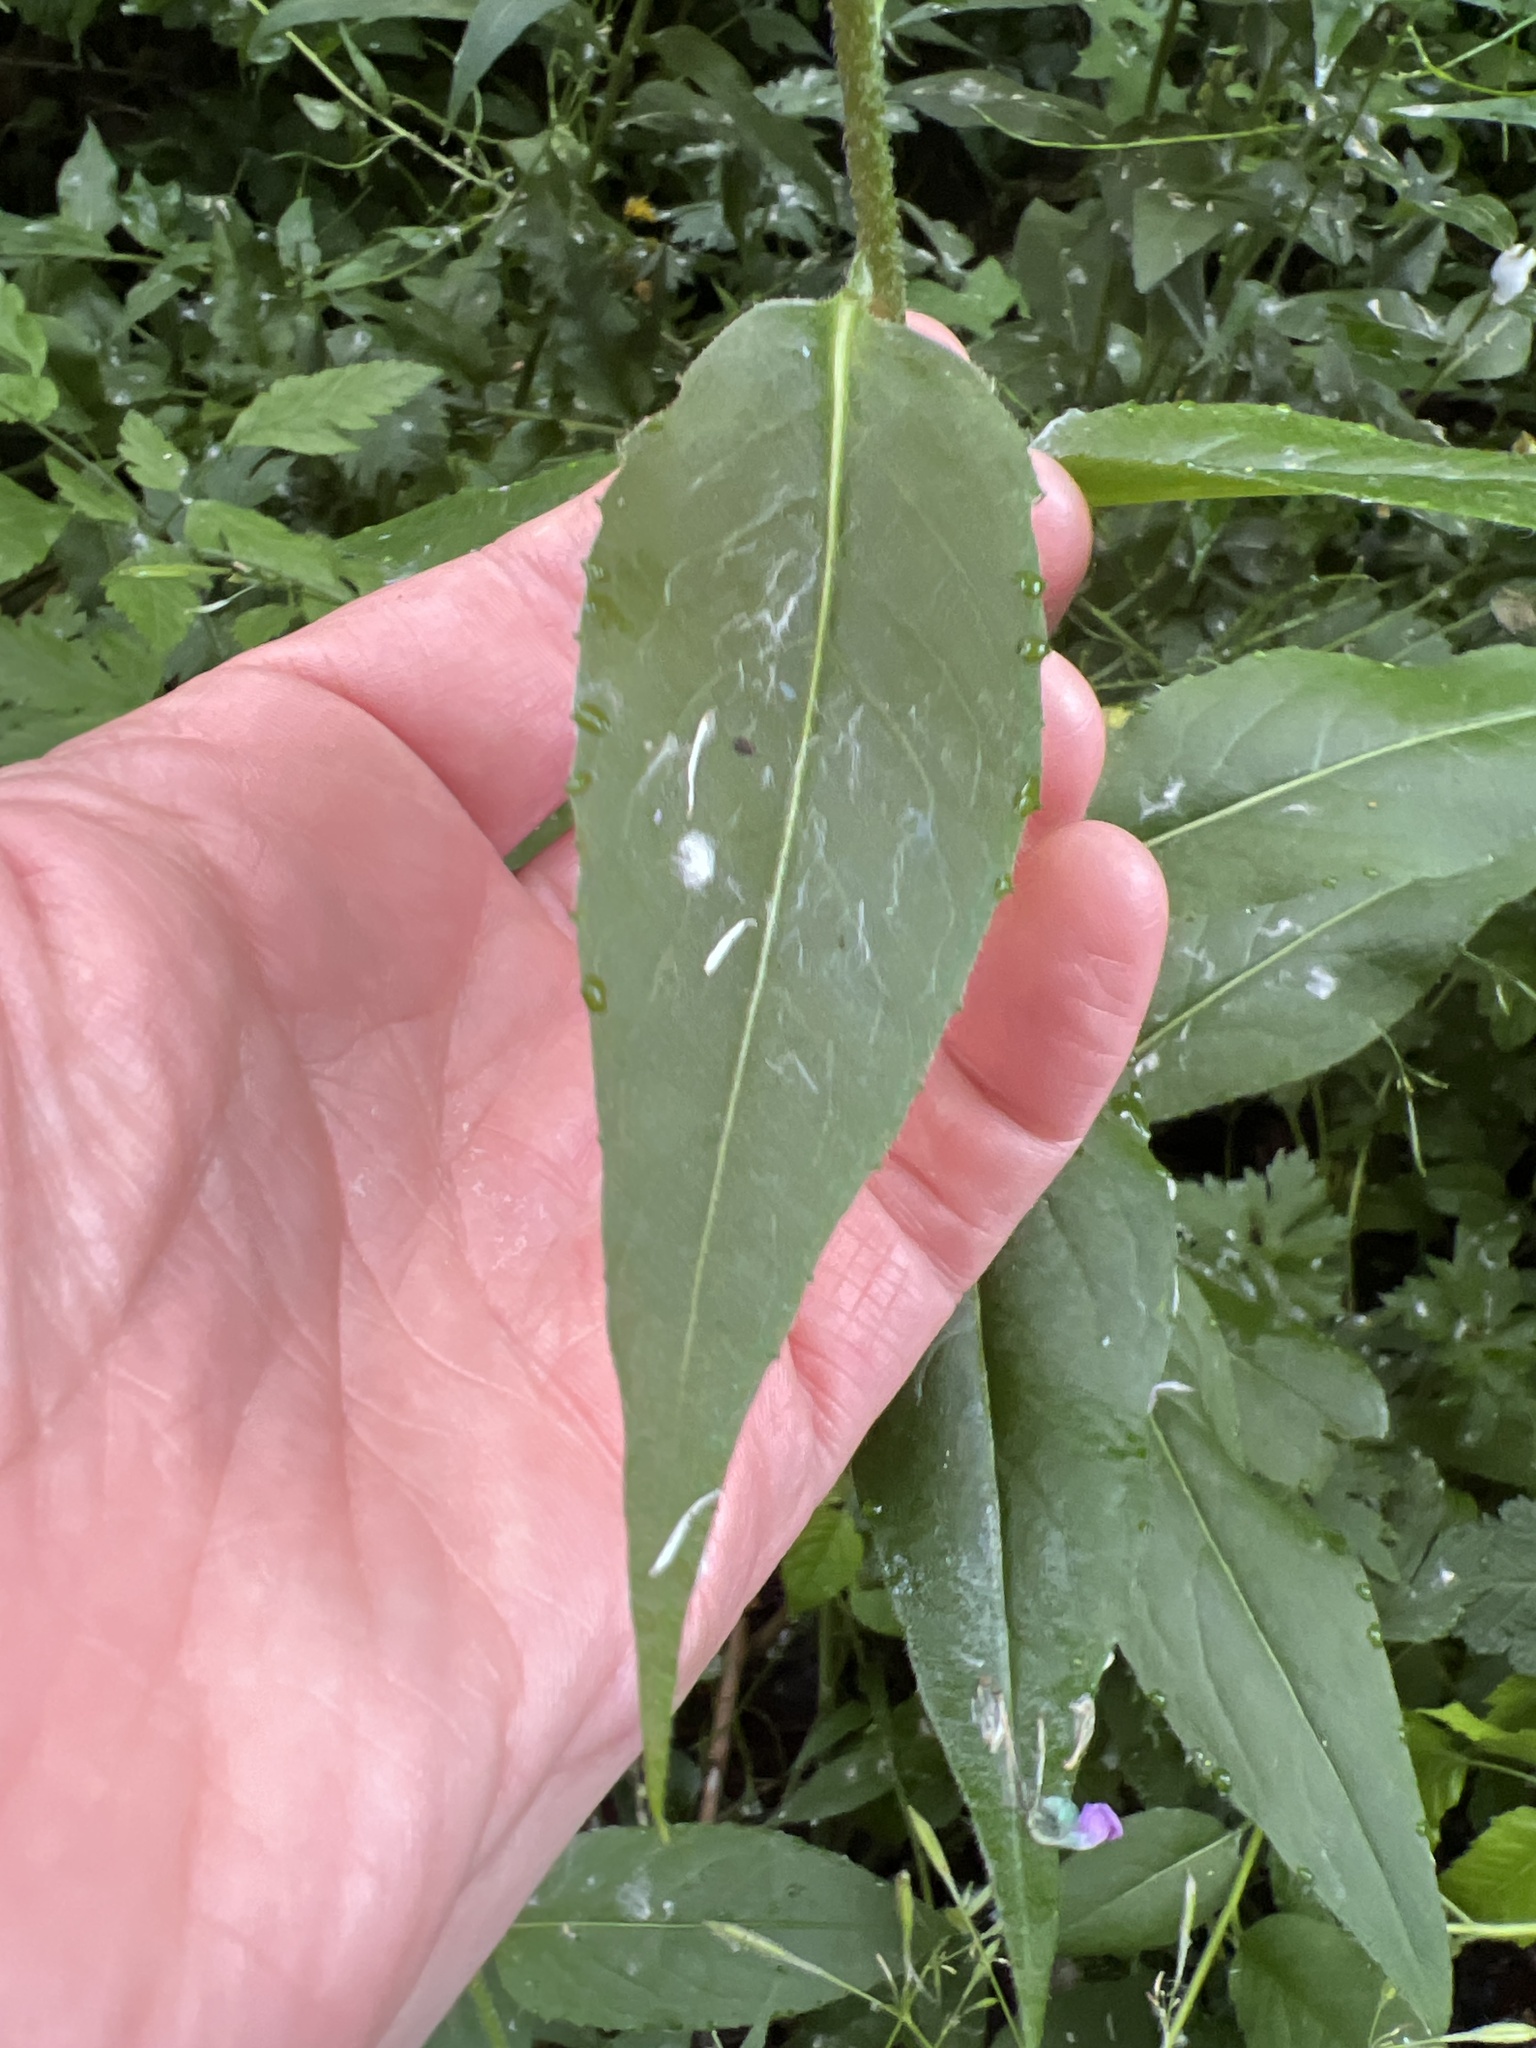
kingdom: Plantae
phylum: Tracheophyta
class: Magnoliopsida
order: Brassicales
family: Brassicaceae
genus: Hesperis
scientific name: Hesperis matronalis
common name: Dame's-violet
